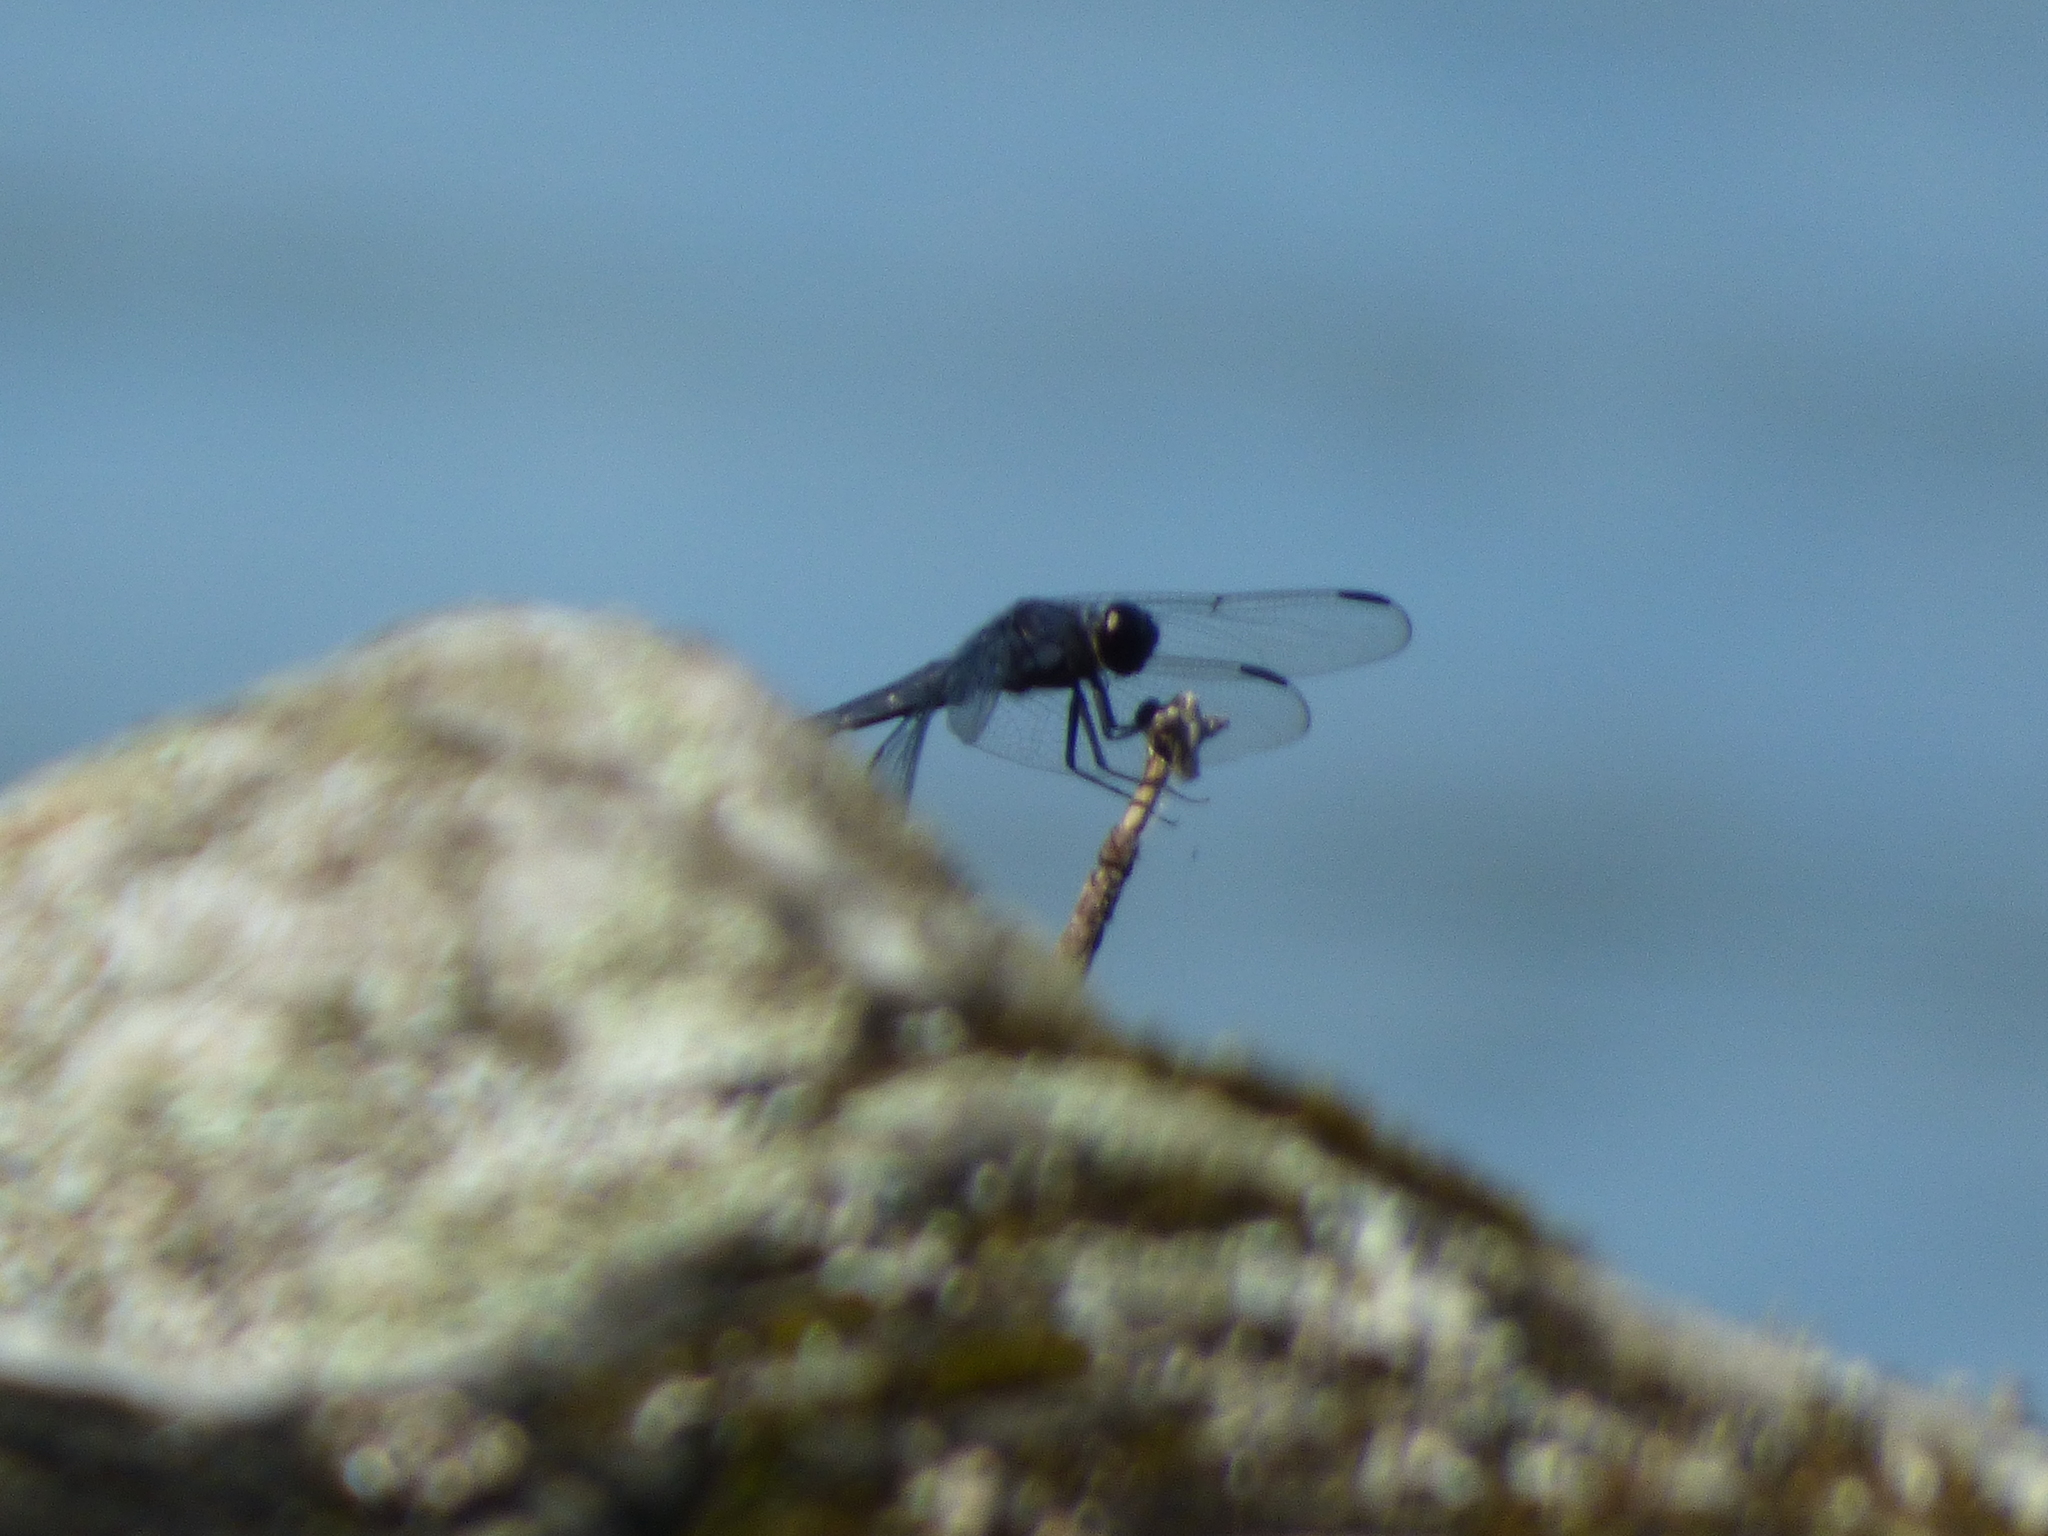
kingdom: Animalia
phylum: Arthropoda
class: Insecta
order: Odonata
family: Libellulidae
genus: Libellula
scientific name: Libellula incesta
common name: Slaty skimmer
